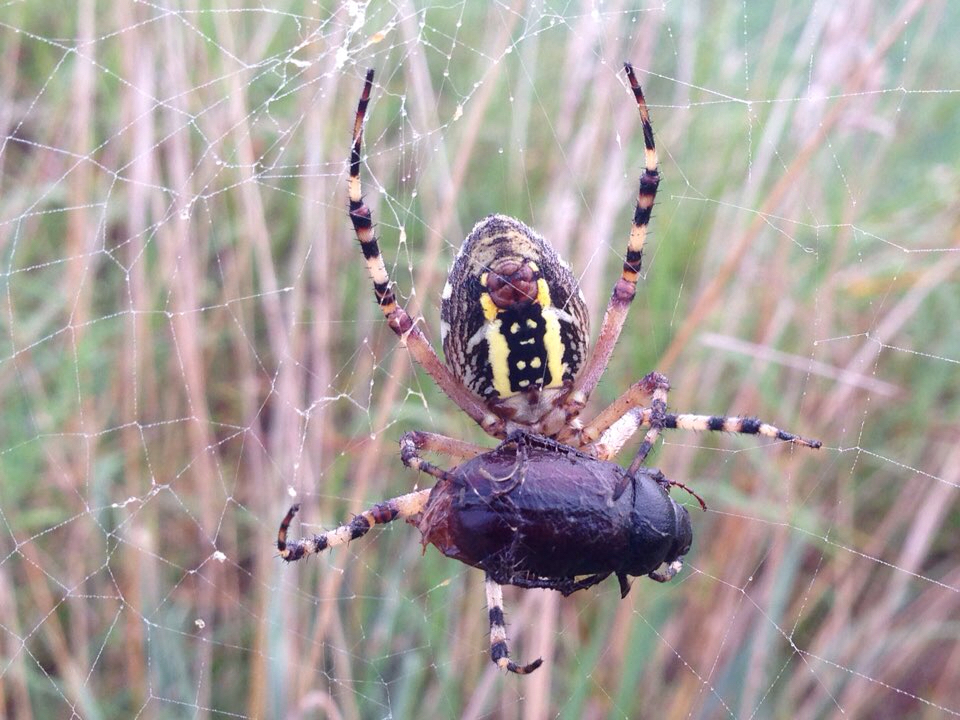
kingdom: Animalia
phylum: Arthropoda
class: Arachnida
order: Araneae
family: Araneidae
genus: Argiope
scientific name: Argiope bruennichi
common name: Wasp spider
